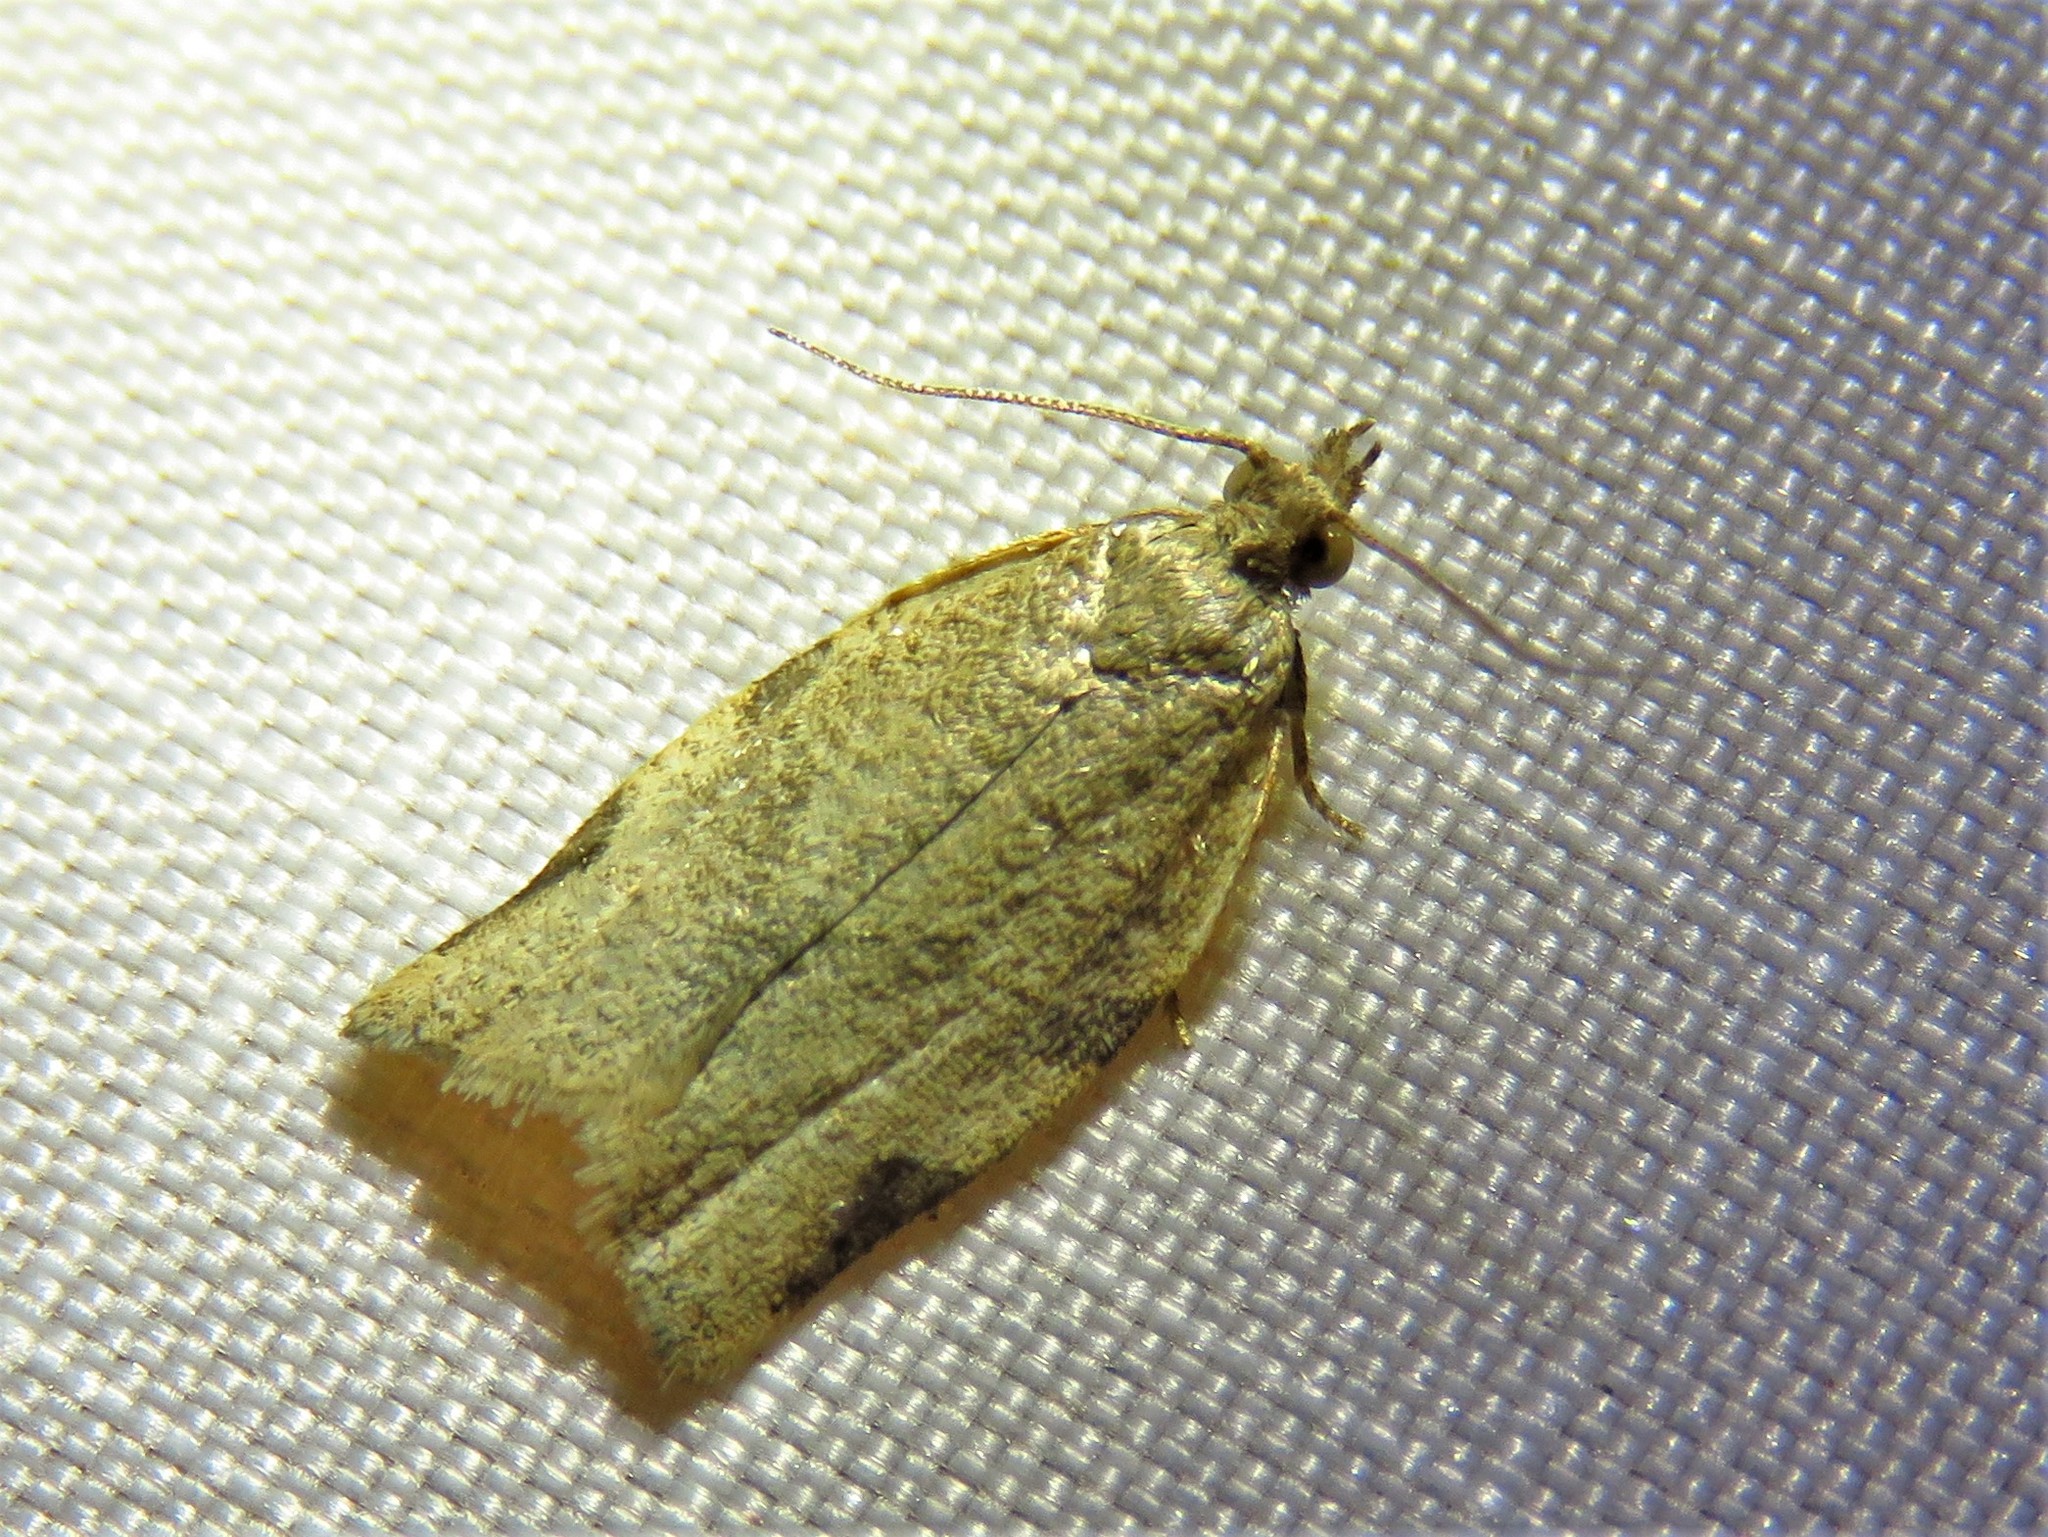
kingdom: Animalia
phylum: Arthropoda
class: Insecta
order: Lepidoptera
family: Tortricidae
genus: Clepsis
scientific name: Clepsis virescana
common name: Greenish apple moth
